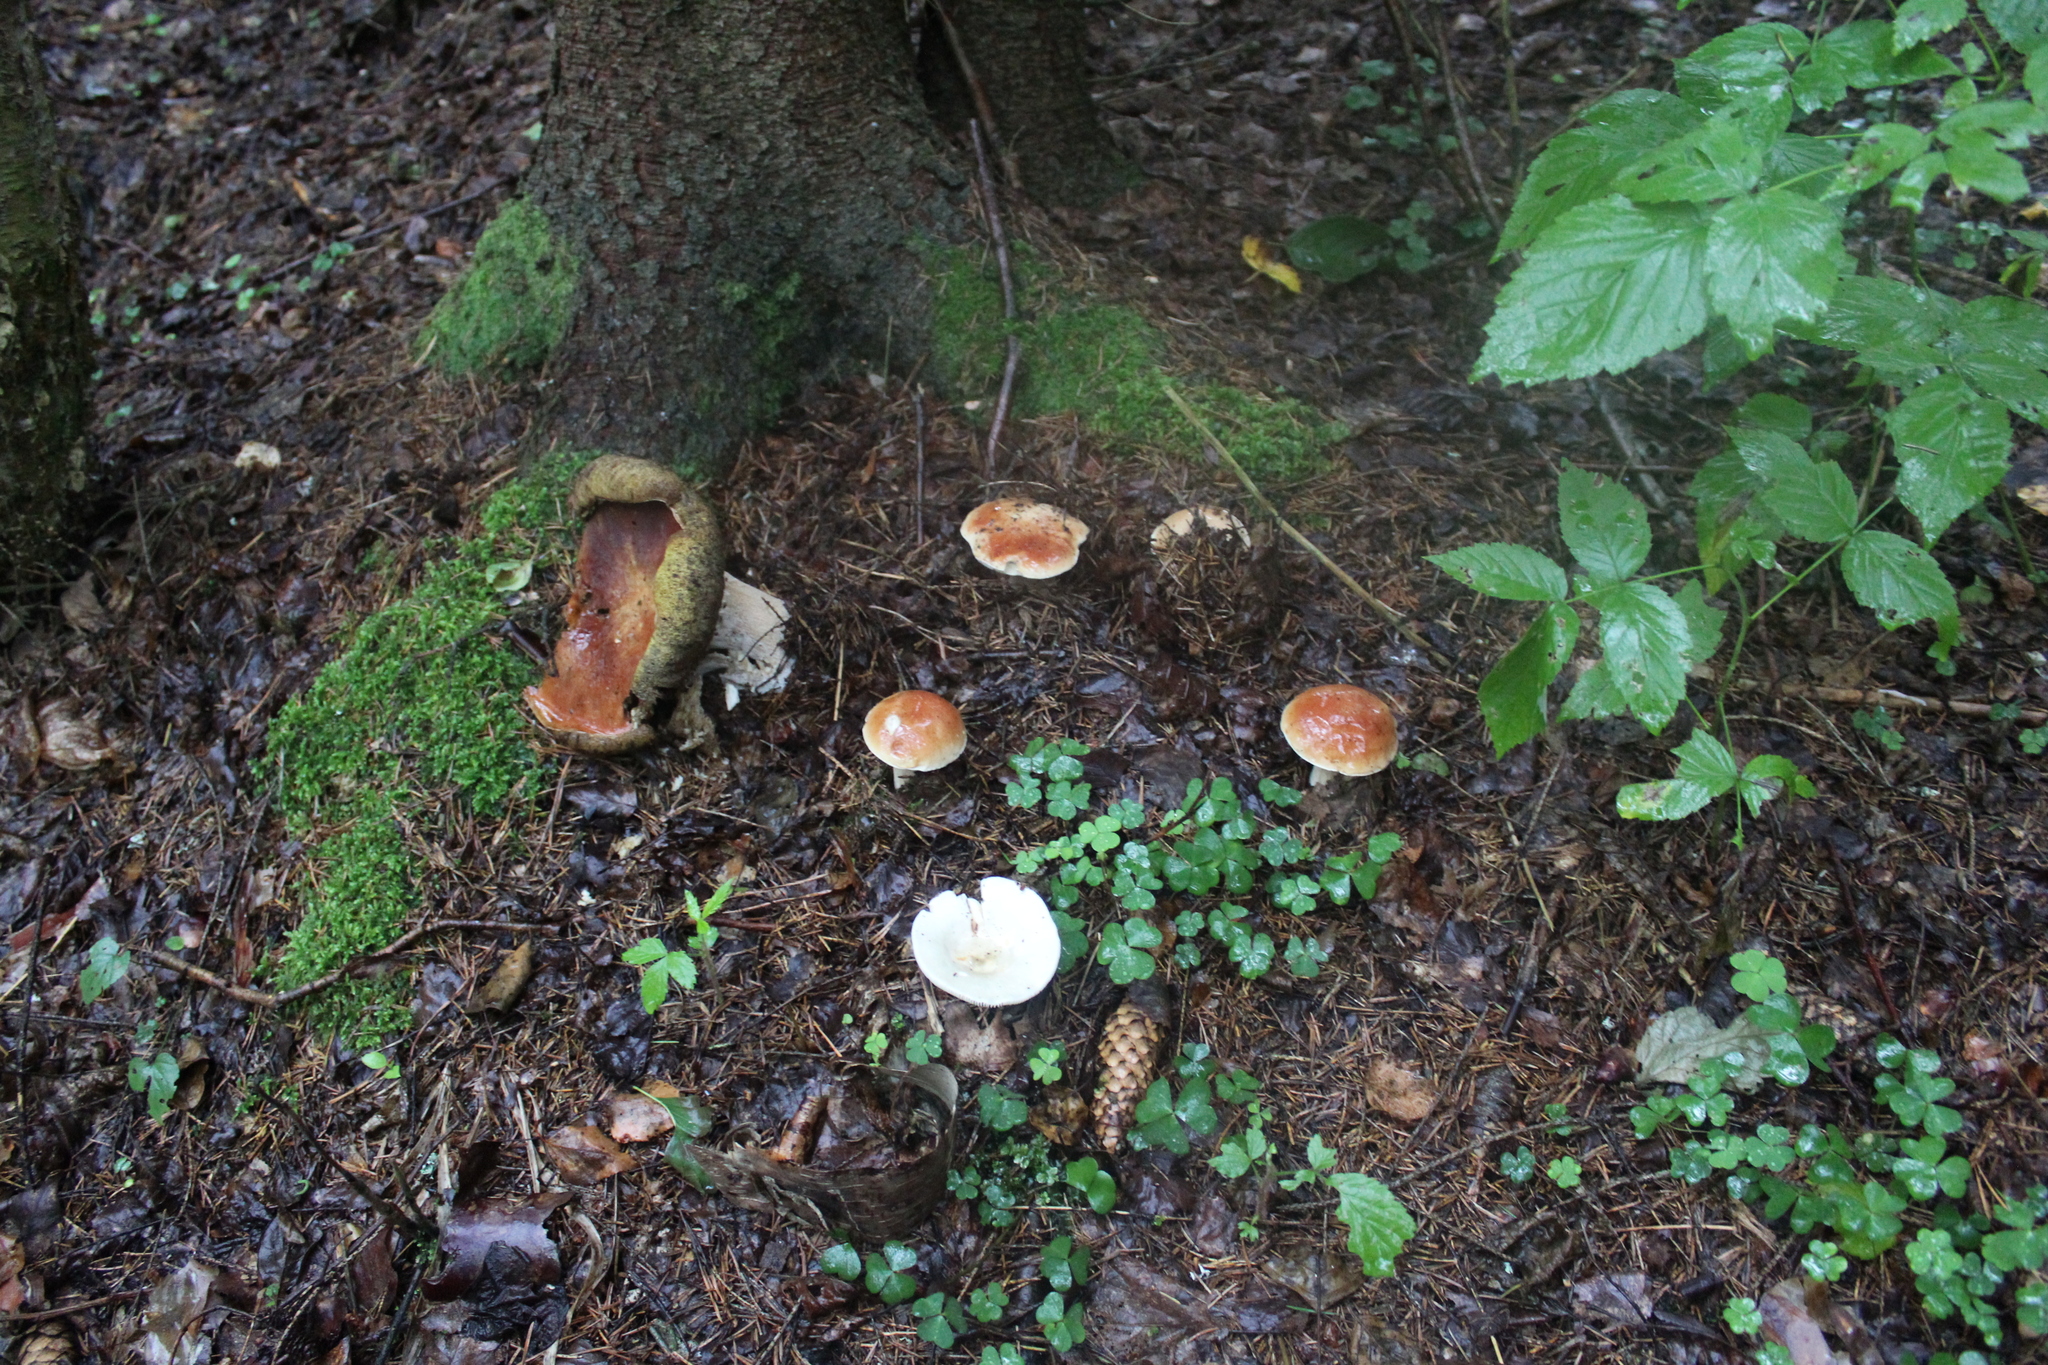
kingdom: Fungi
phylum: Basidiomycota
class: Agaricomycetes
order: Boletales
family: Boletaceae
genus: Boletus
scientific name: Boletus edulis
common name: Cep
